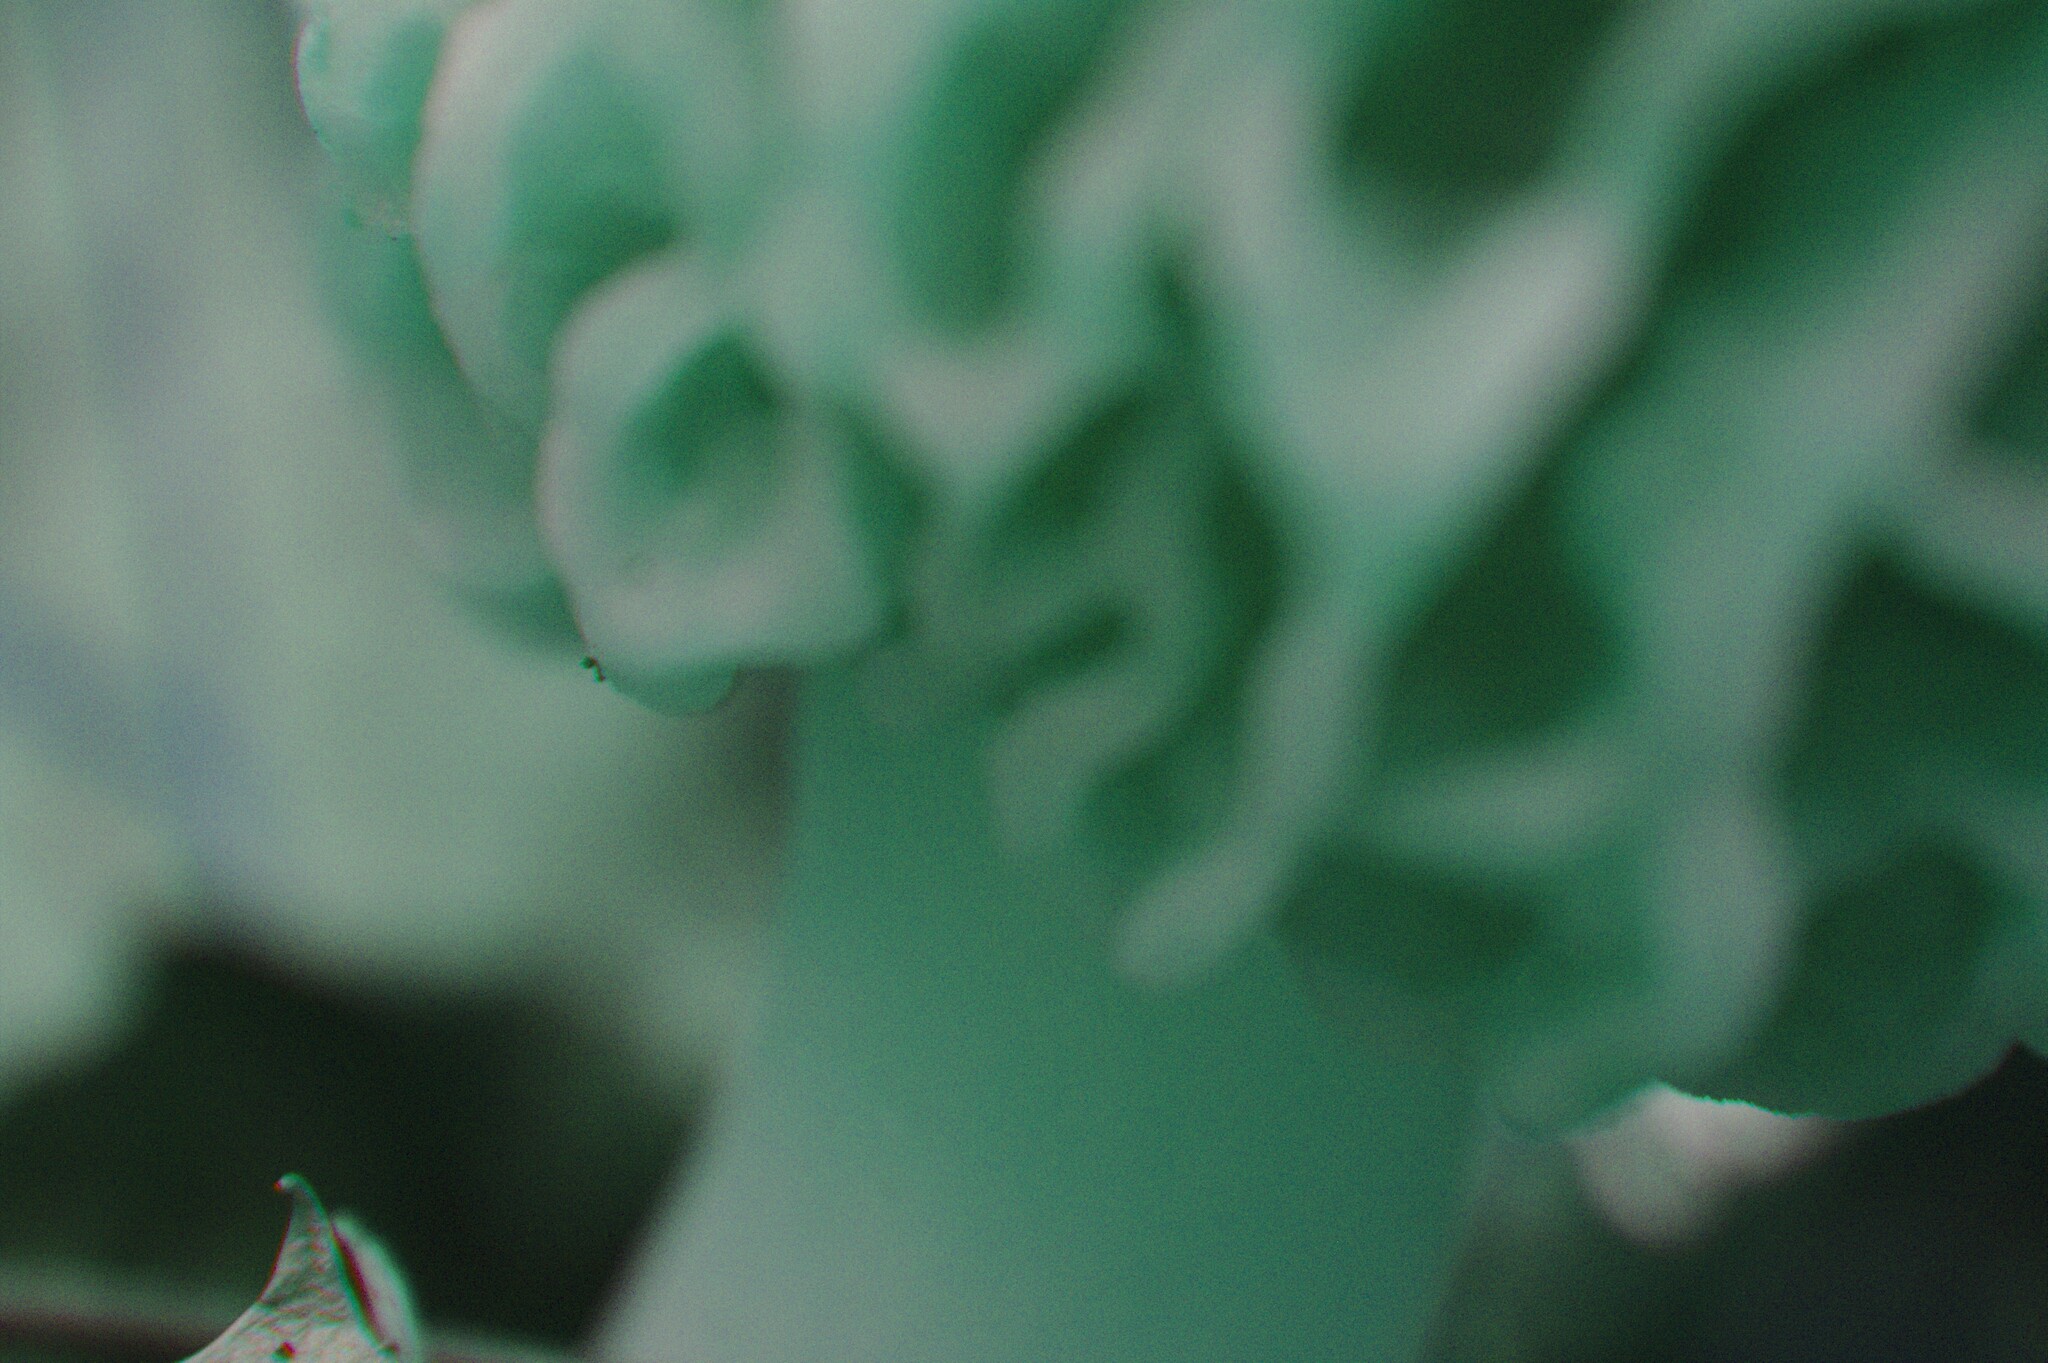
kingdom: Fungi
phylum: Ascomycota
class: Pezizomycetes
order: Pezizales
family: Morchellaceae
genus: Morchella
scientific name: Morchella americana
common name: White morel
